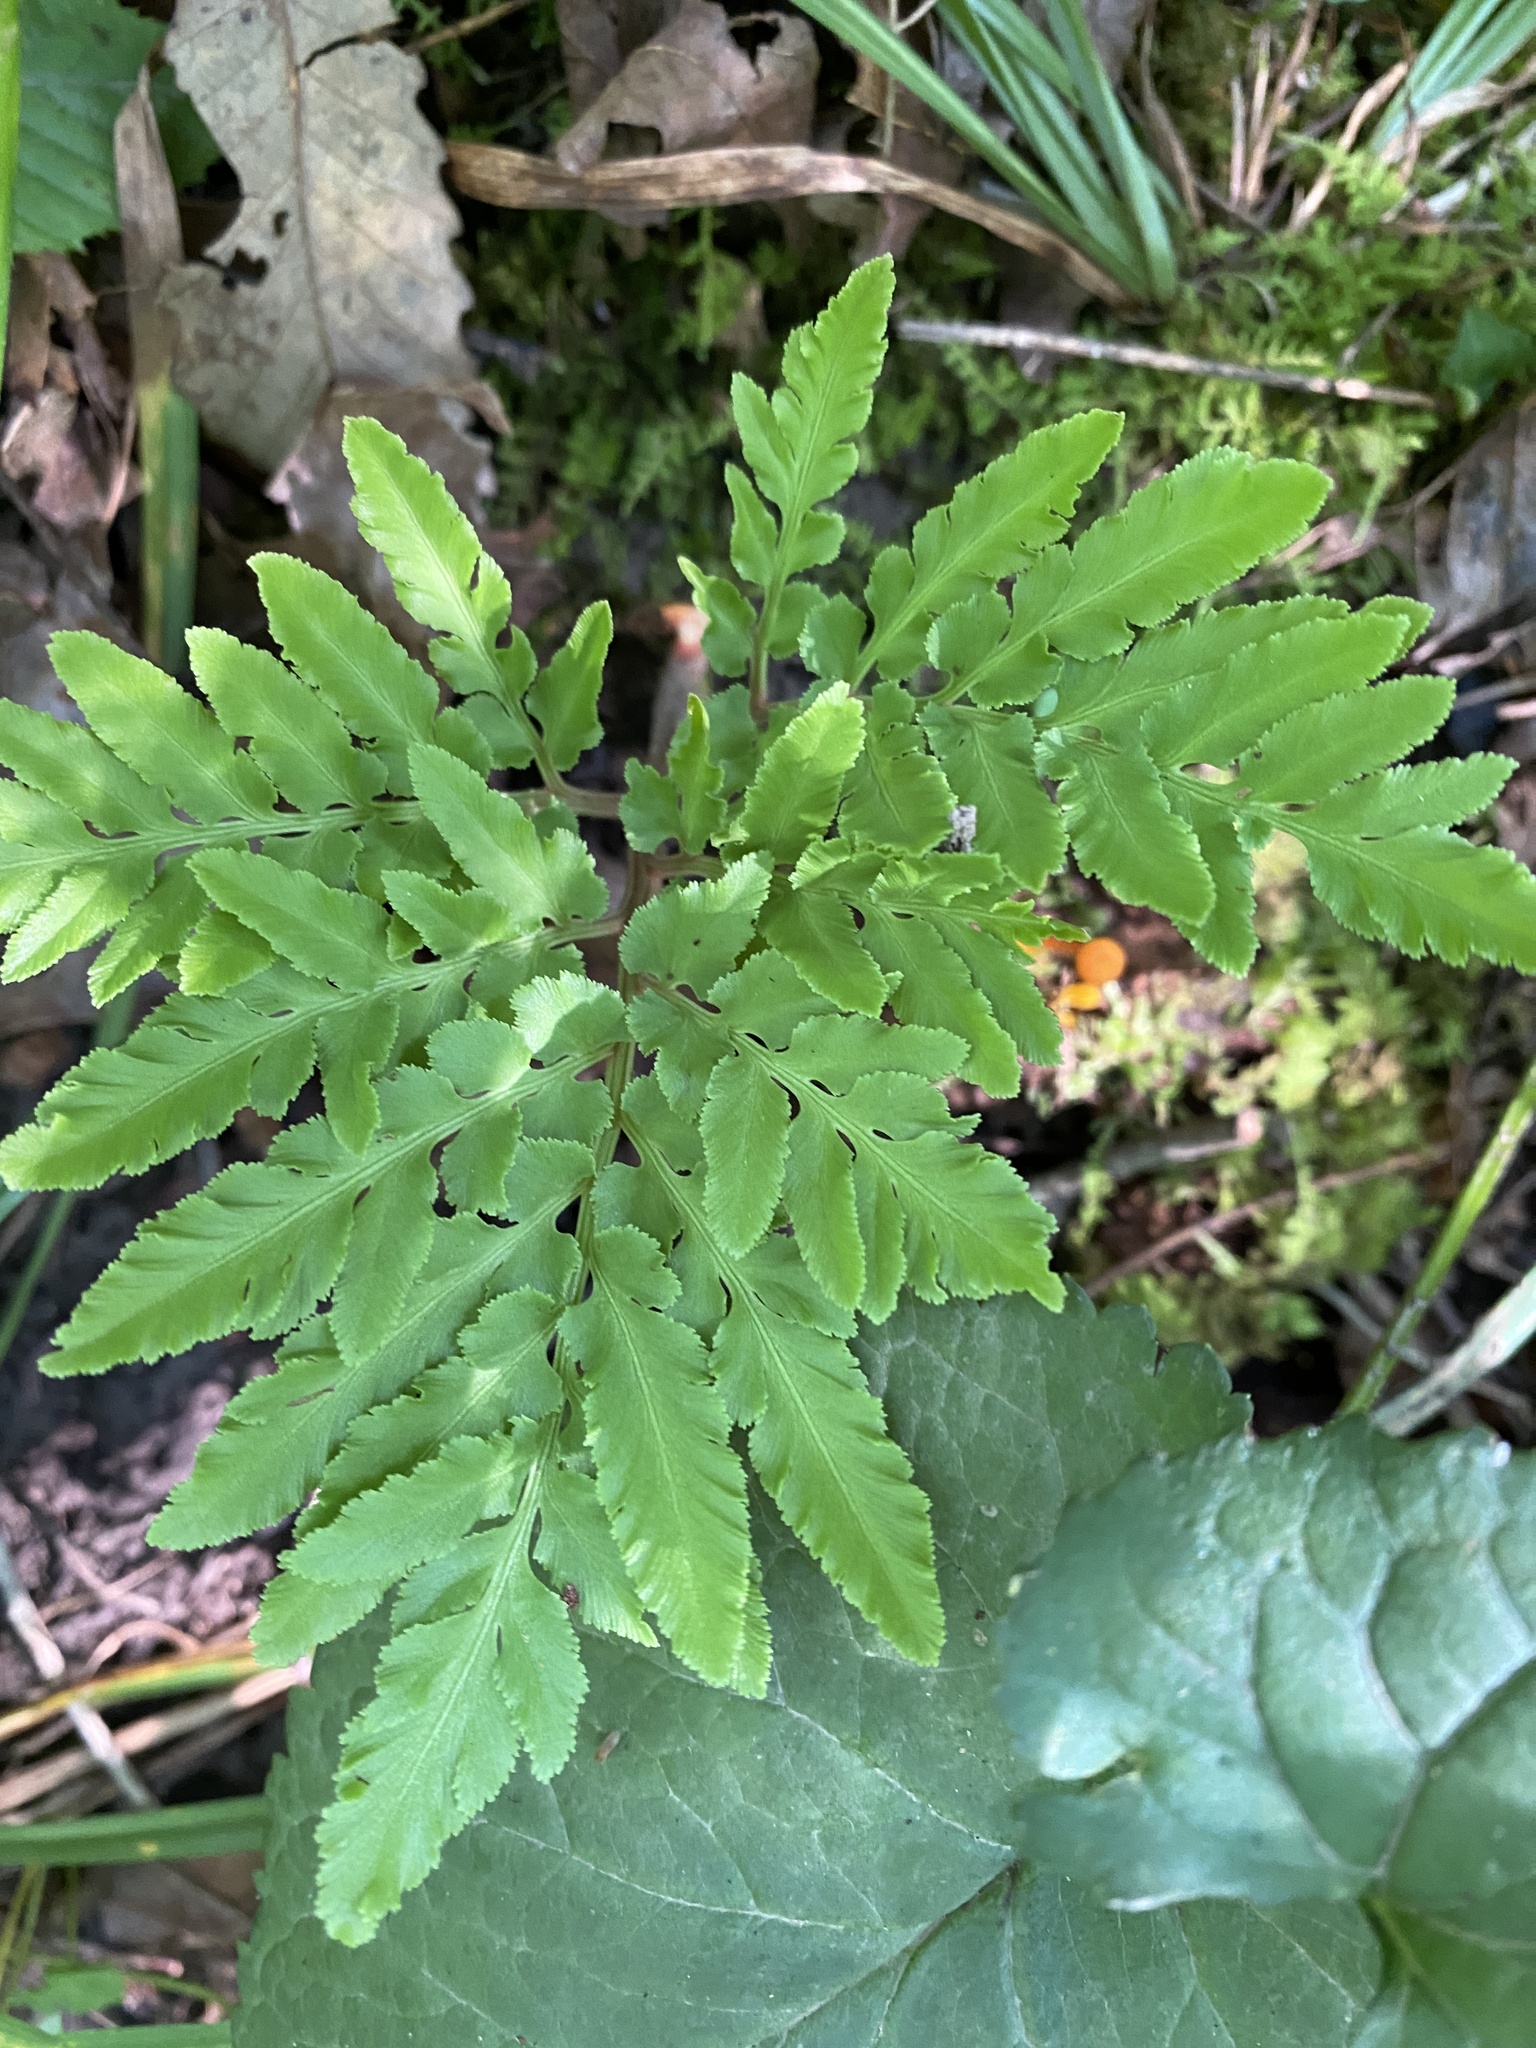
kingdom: Plantae
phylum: Tracheophyta
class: Polypodiopsida
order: Ophioglossales
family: Ophioglossaceae
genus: Sceptridium
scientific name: Sceptridium dissectum
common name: Cut-leaved grapefern
